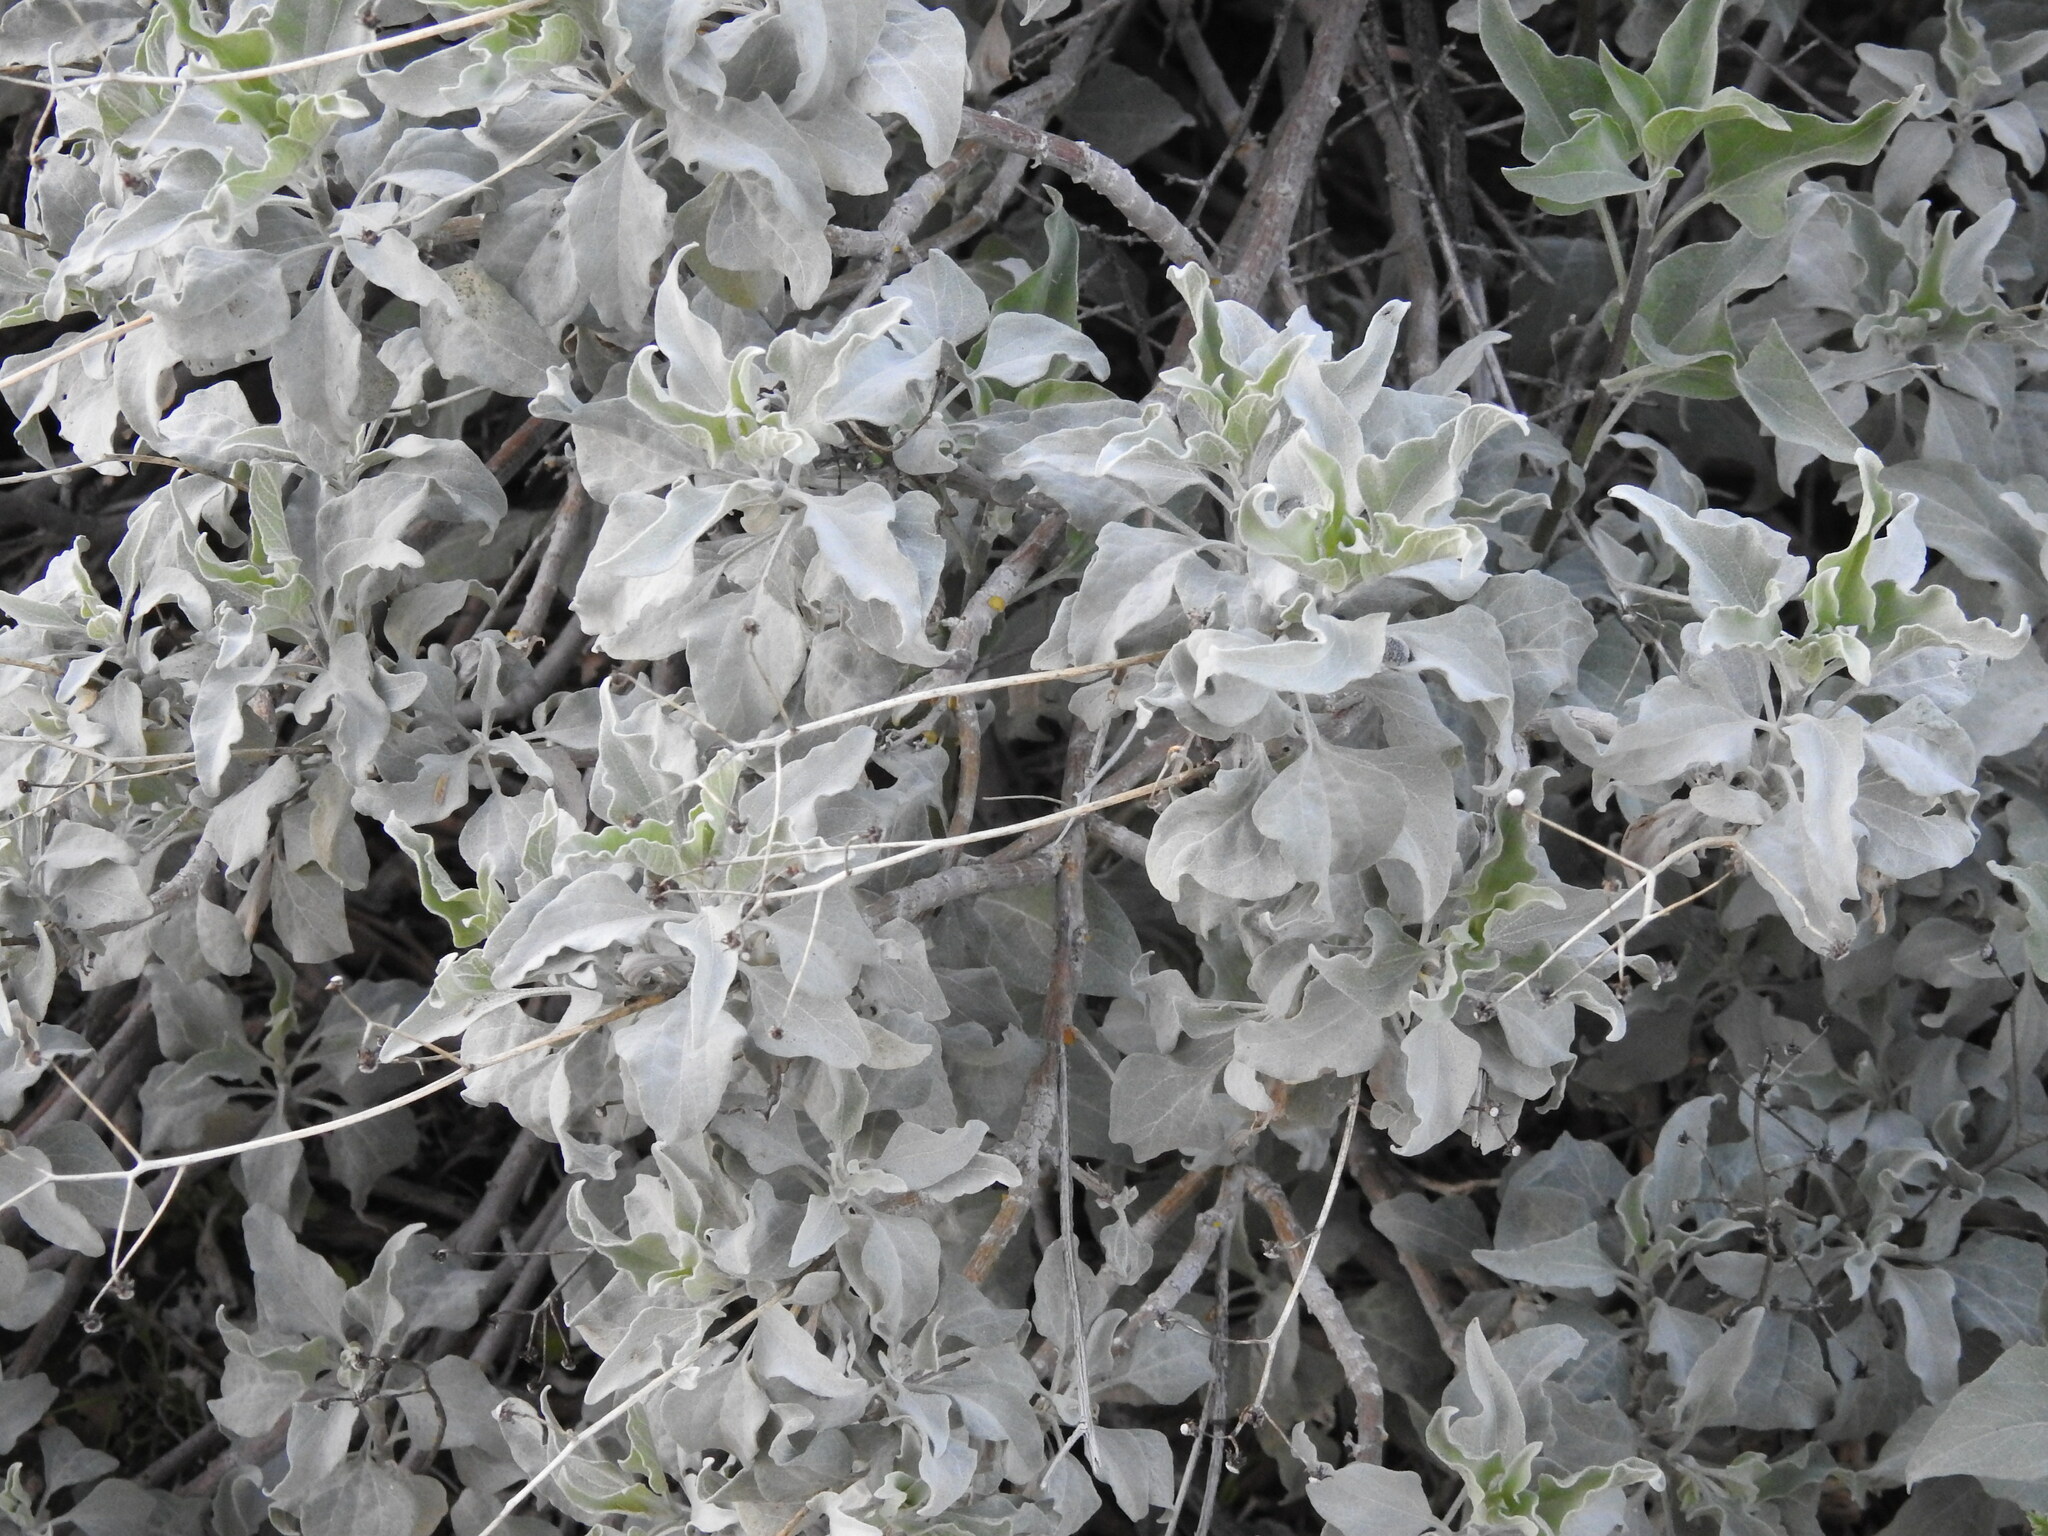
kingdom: Plantae
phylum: Tracheophyta
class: Magnoliopsida
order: Asterales
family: Asteraceae
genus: Encelia
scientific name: Encelia farinosa
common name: Brittlebush
